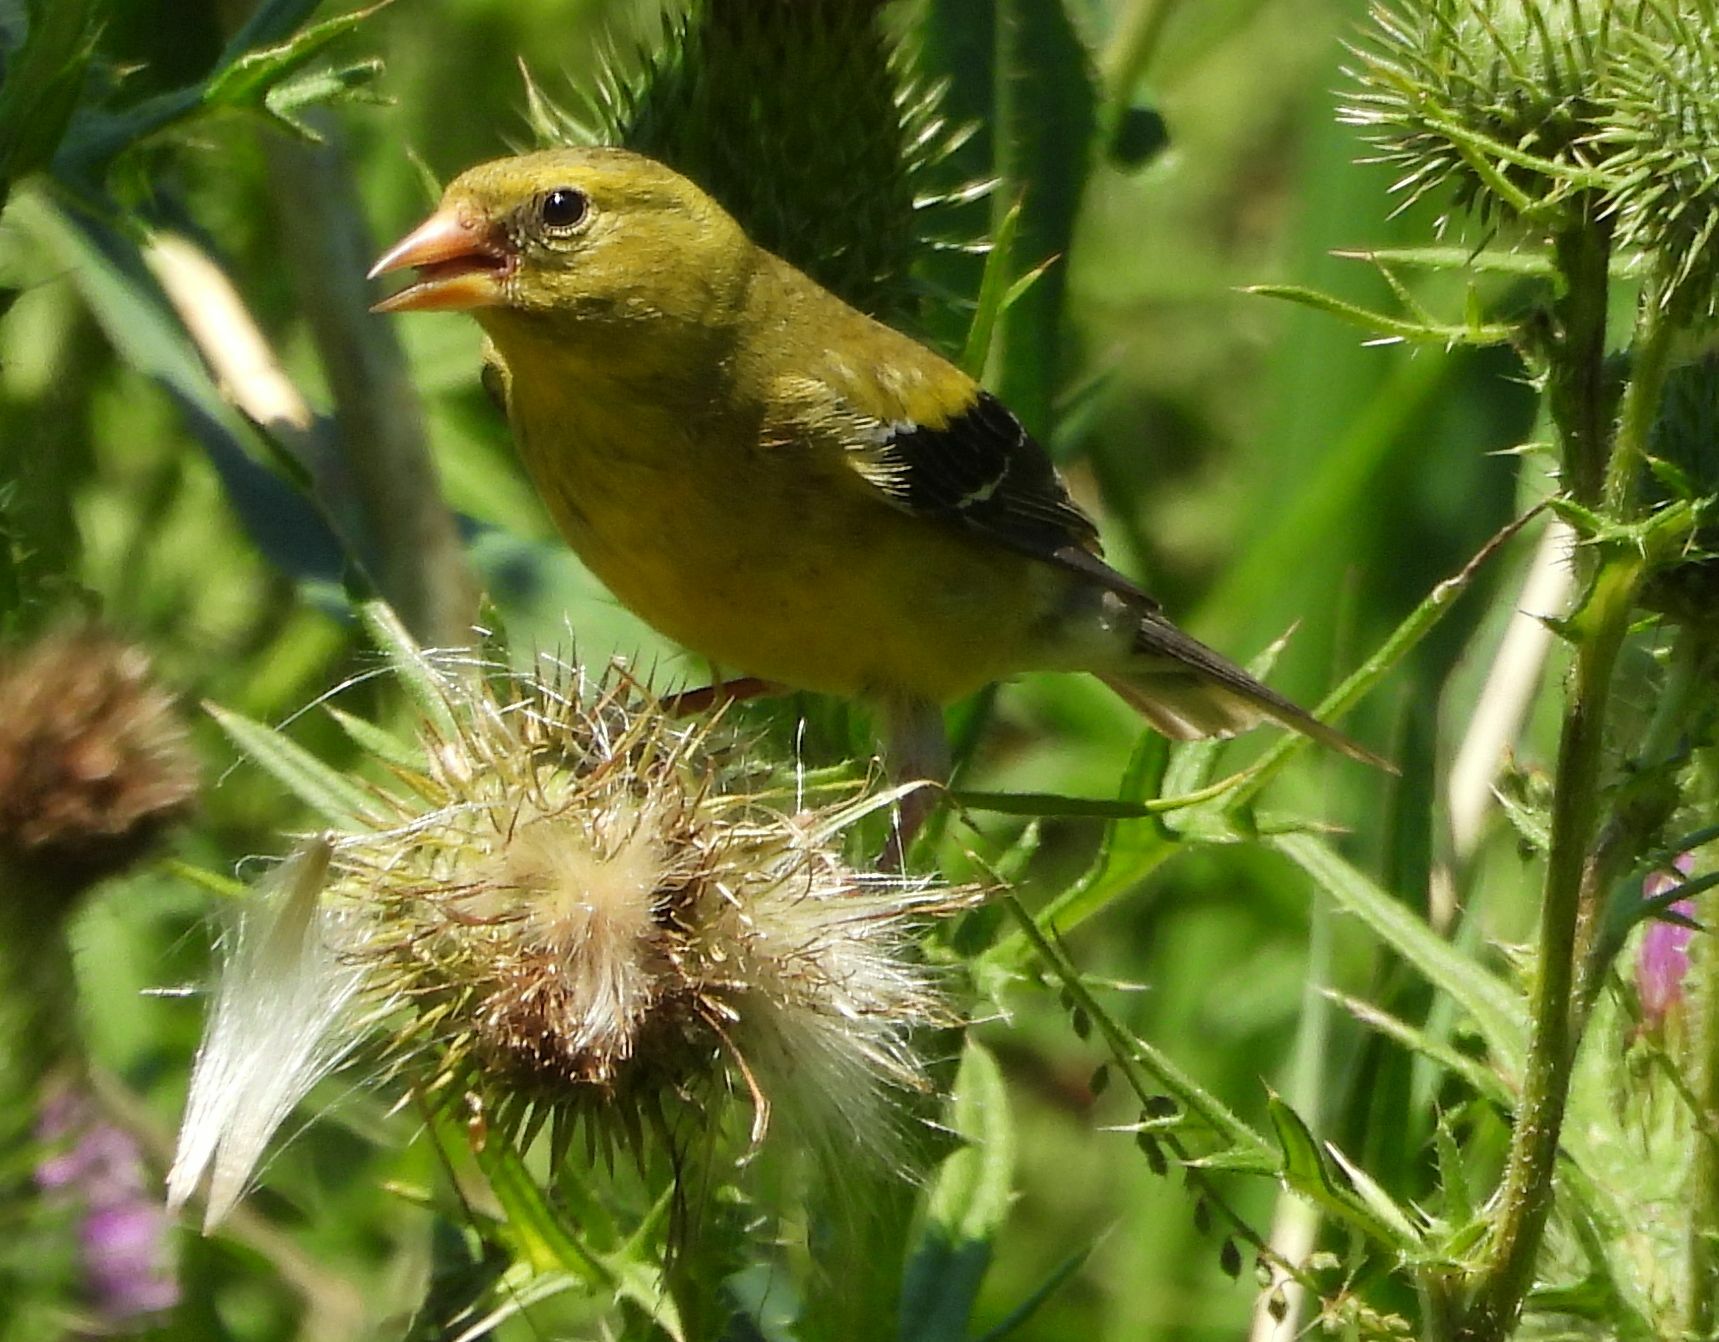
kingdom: Animalia
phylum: Chordata
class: Aves
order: Passeriformes
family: Fringillidae
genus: Spinus
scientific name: Spinus tristis
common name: American goldfinch
